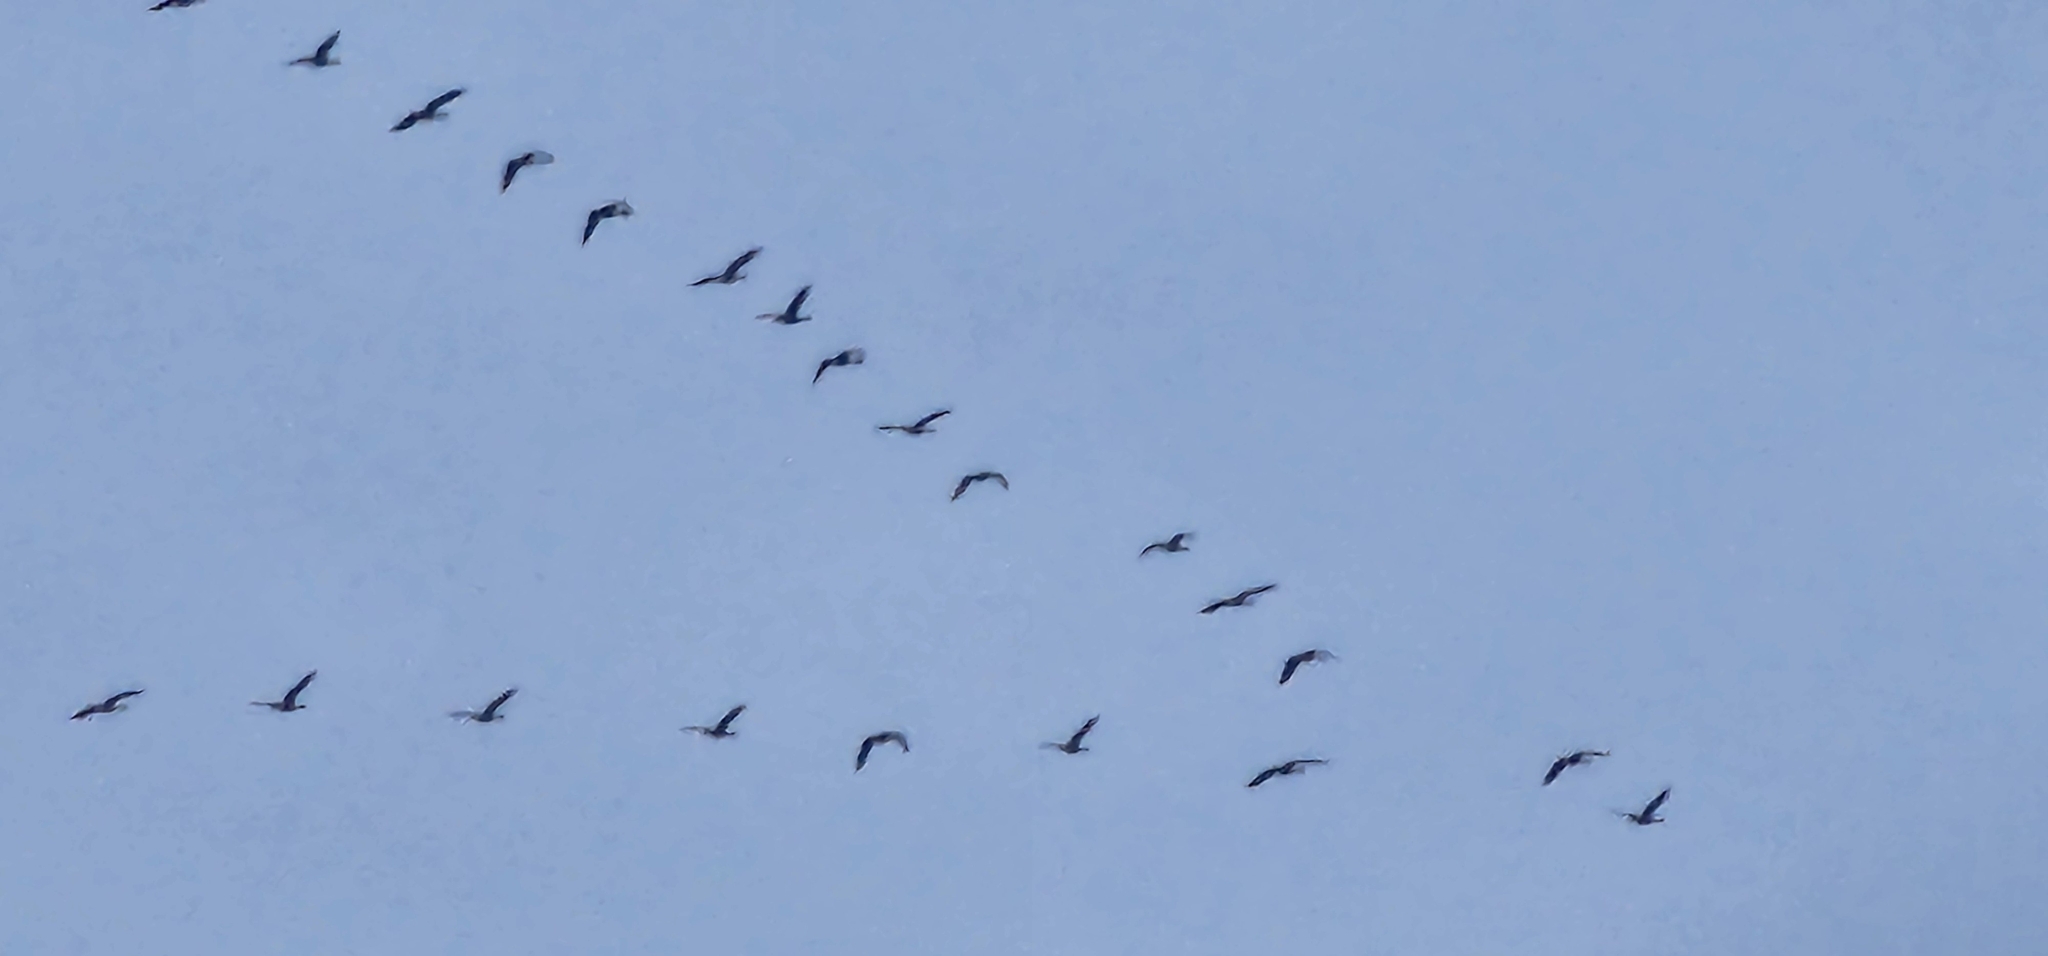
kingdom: Animalia
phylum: Chordata
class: Aves
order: Anseriformes
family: Anatidae
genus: Branta
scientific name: Branta canadensis
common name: Canada goose
